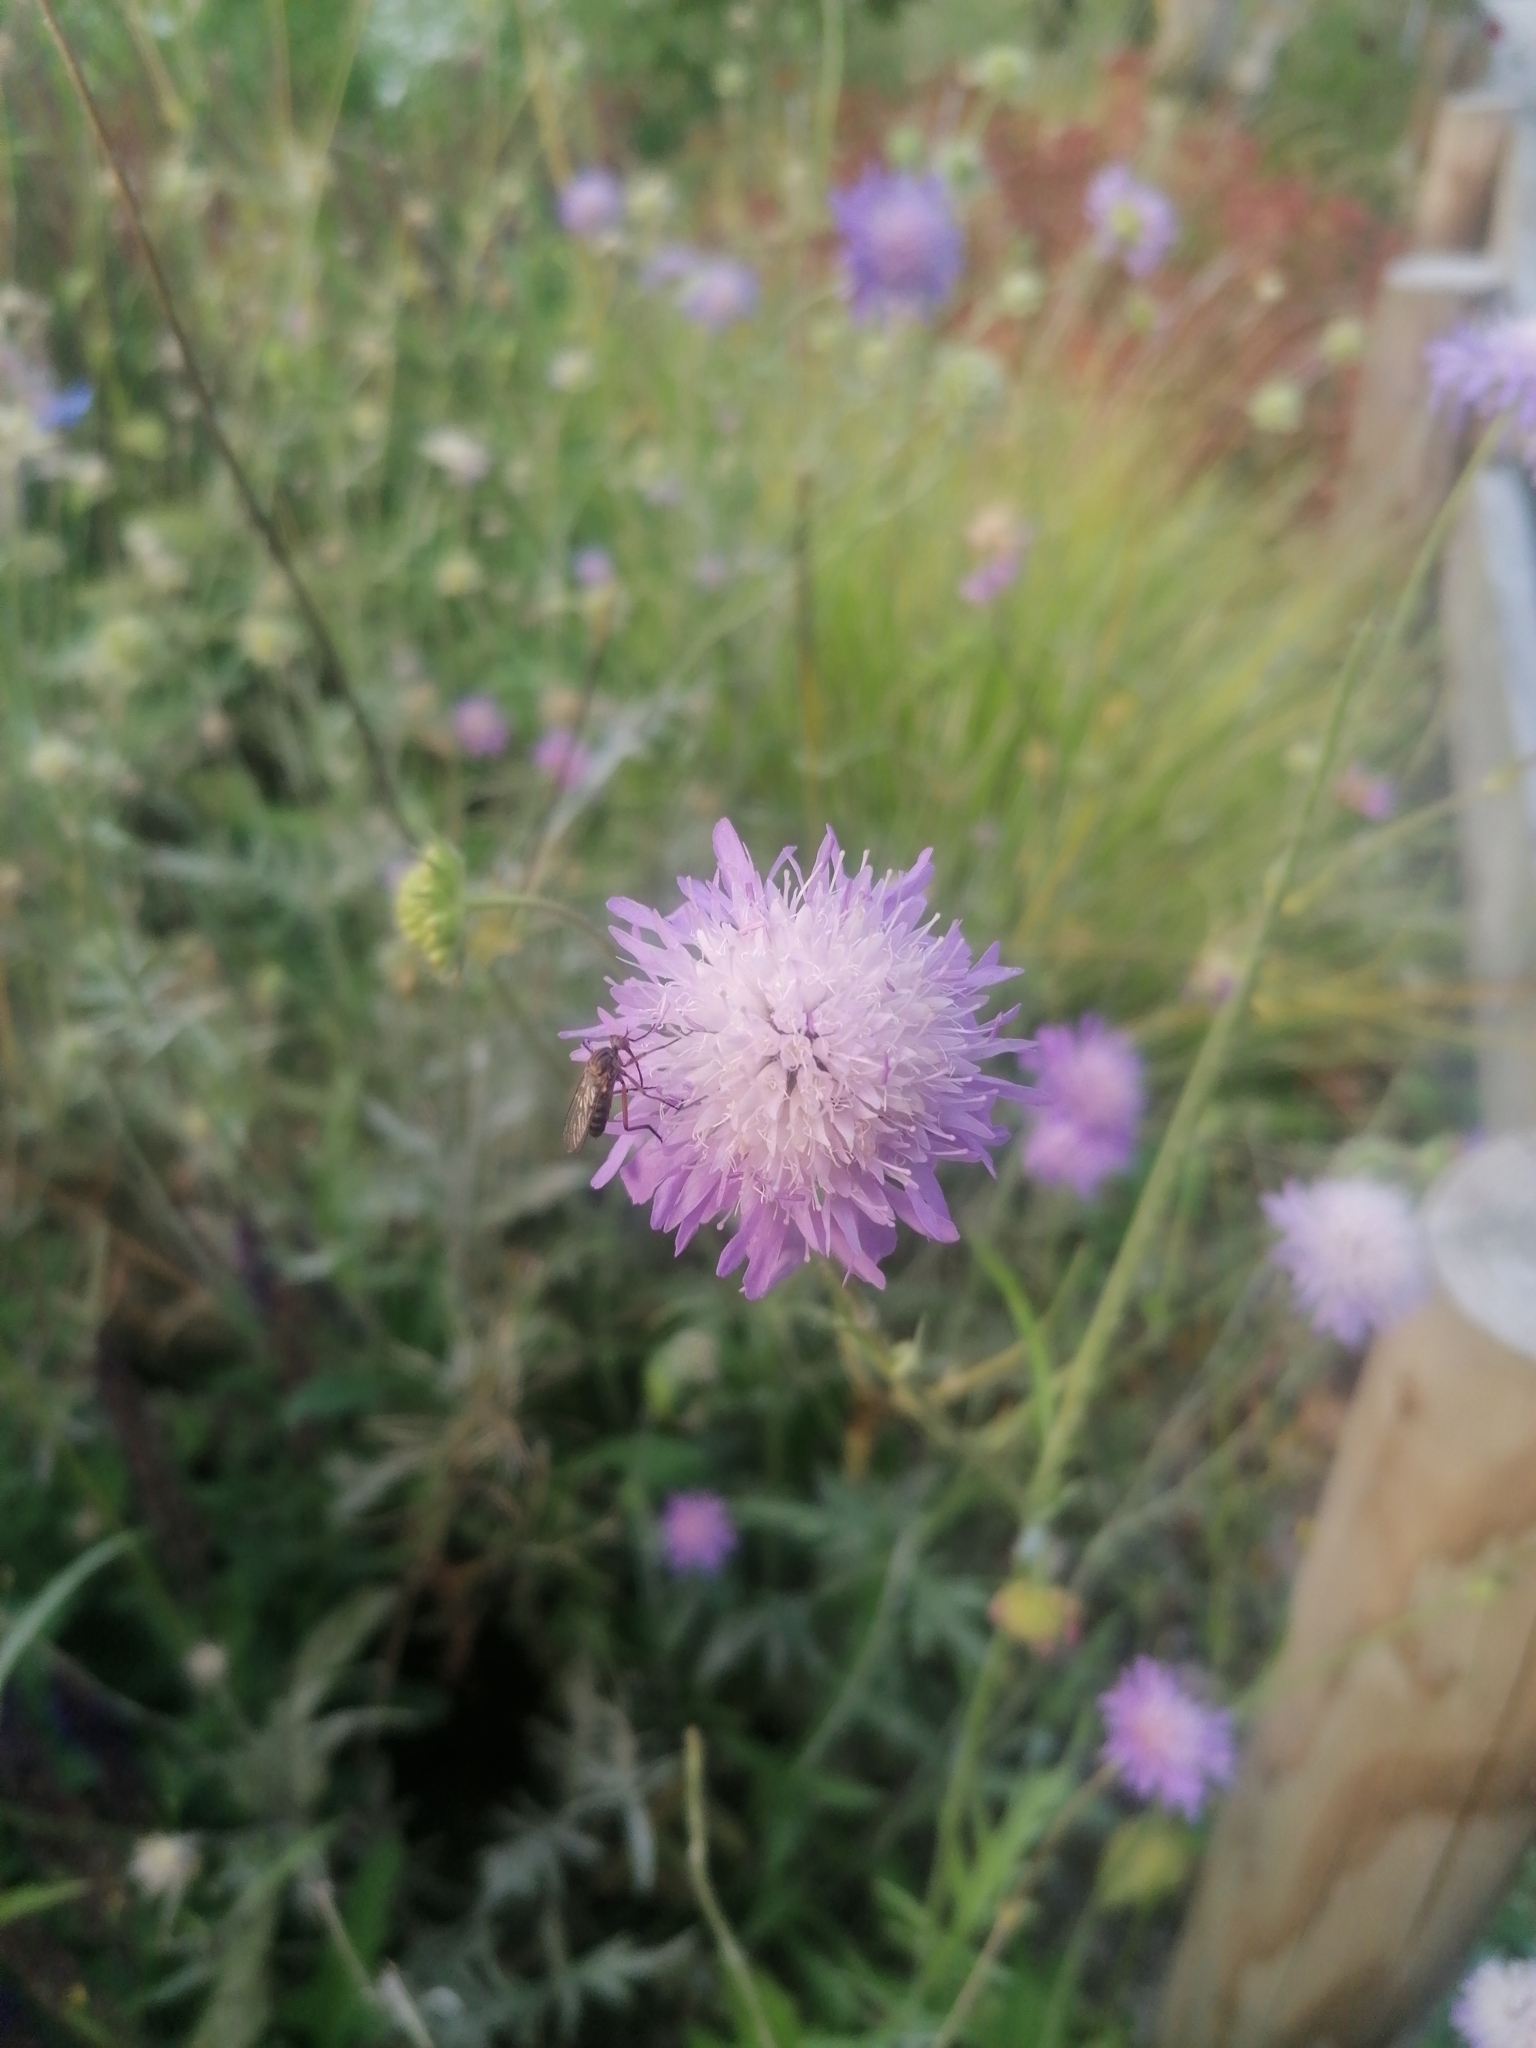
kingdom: Plantae
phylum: Tracheophyta
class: Magnoliopsida
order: Dipsacales
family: Caprifoliaceae
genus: Knautia
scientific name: Knautia arvensis
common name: Field scabiosa
